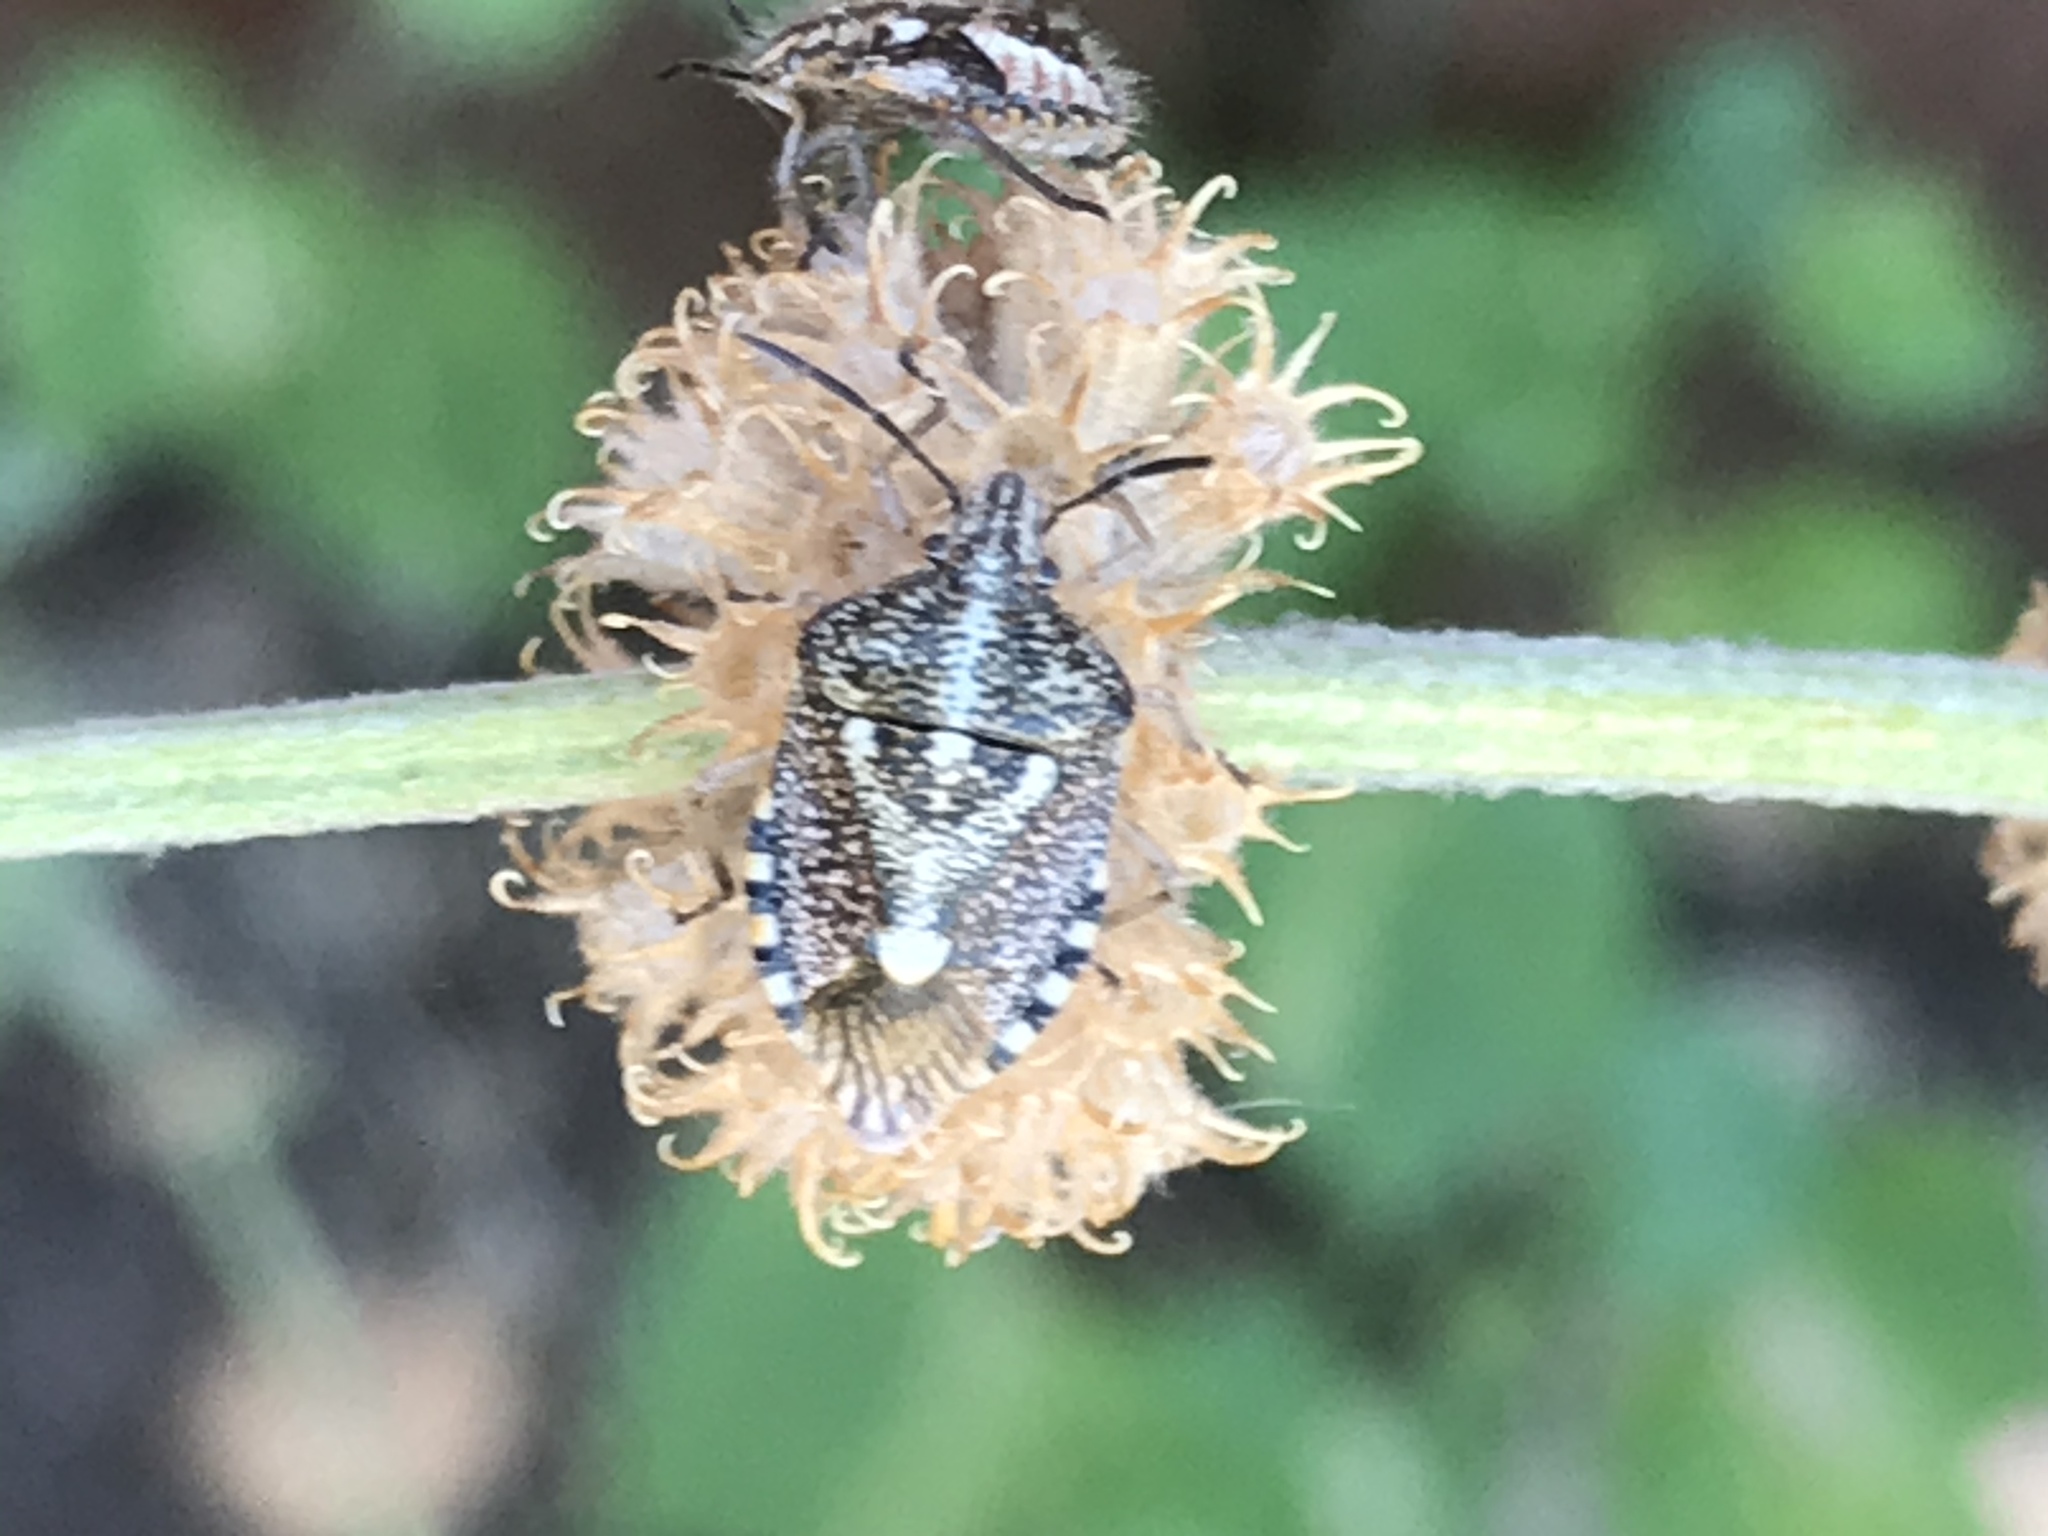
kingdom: Animalia
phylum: Arthropoda
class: Insecta
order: Hemiptera
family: Pentatomidae
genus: Agonoscelis
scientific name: Agonoscelis puberula
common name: African cluster bug
